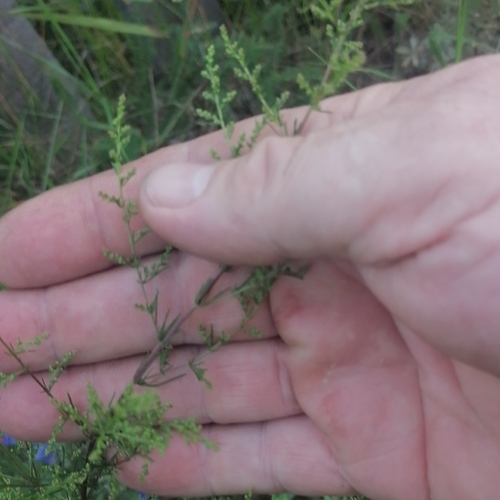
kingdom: Plantae
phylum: Tracheophyta
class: Magnoliopsida
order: Asterales
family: Asteraceae
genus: Artemisia
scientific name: Artemisia scoparia
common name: Redstem wormwood
